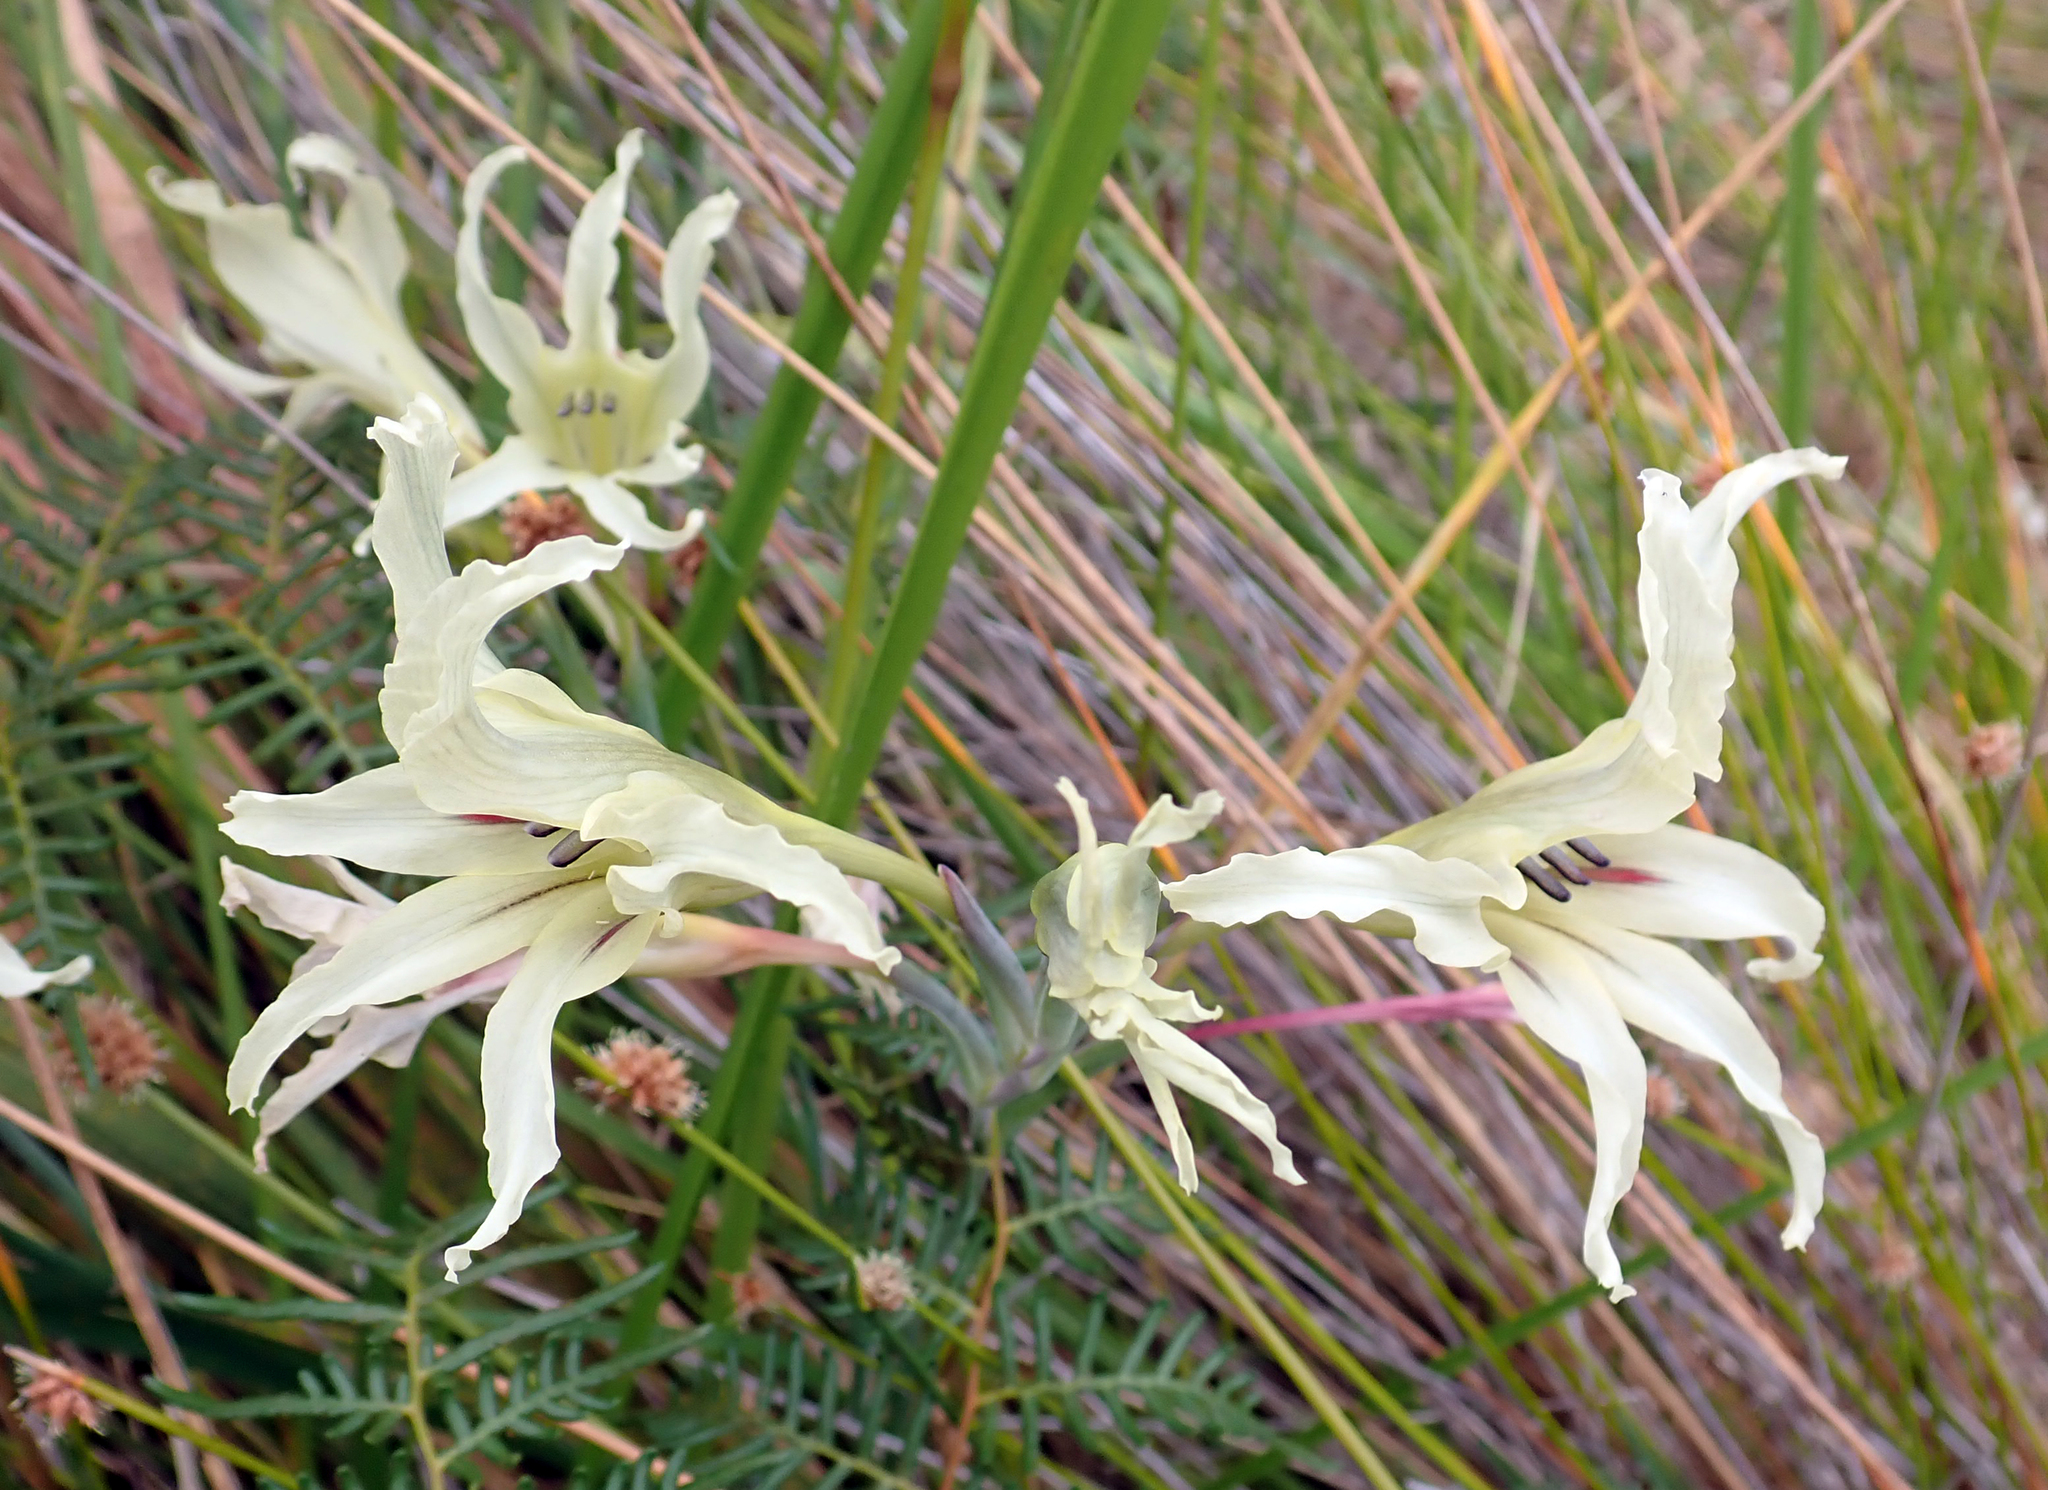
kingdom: Plantae
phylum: Tracheophyta
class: Liliopsida
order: Asparagales
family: Iridaceae
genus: Gladiolus
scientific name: Gladiolus undulatus
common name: Large painted-lady
